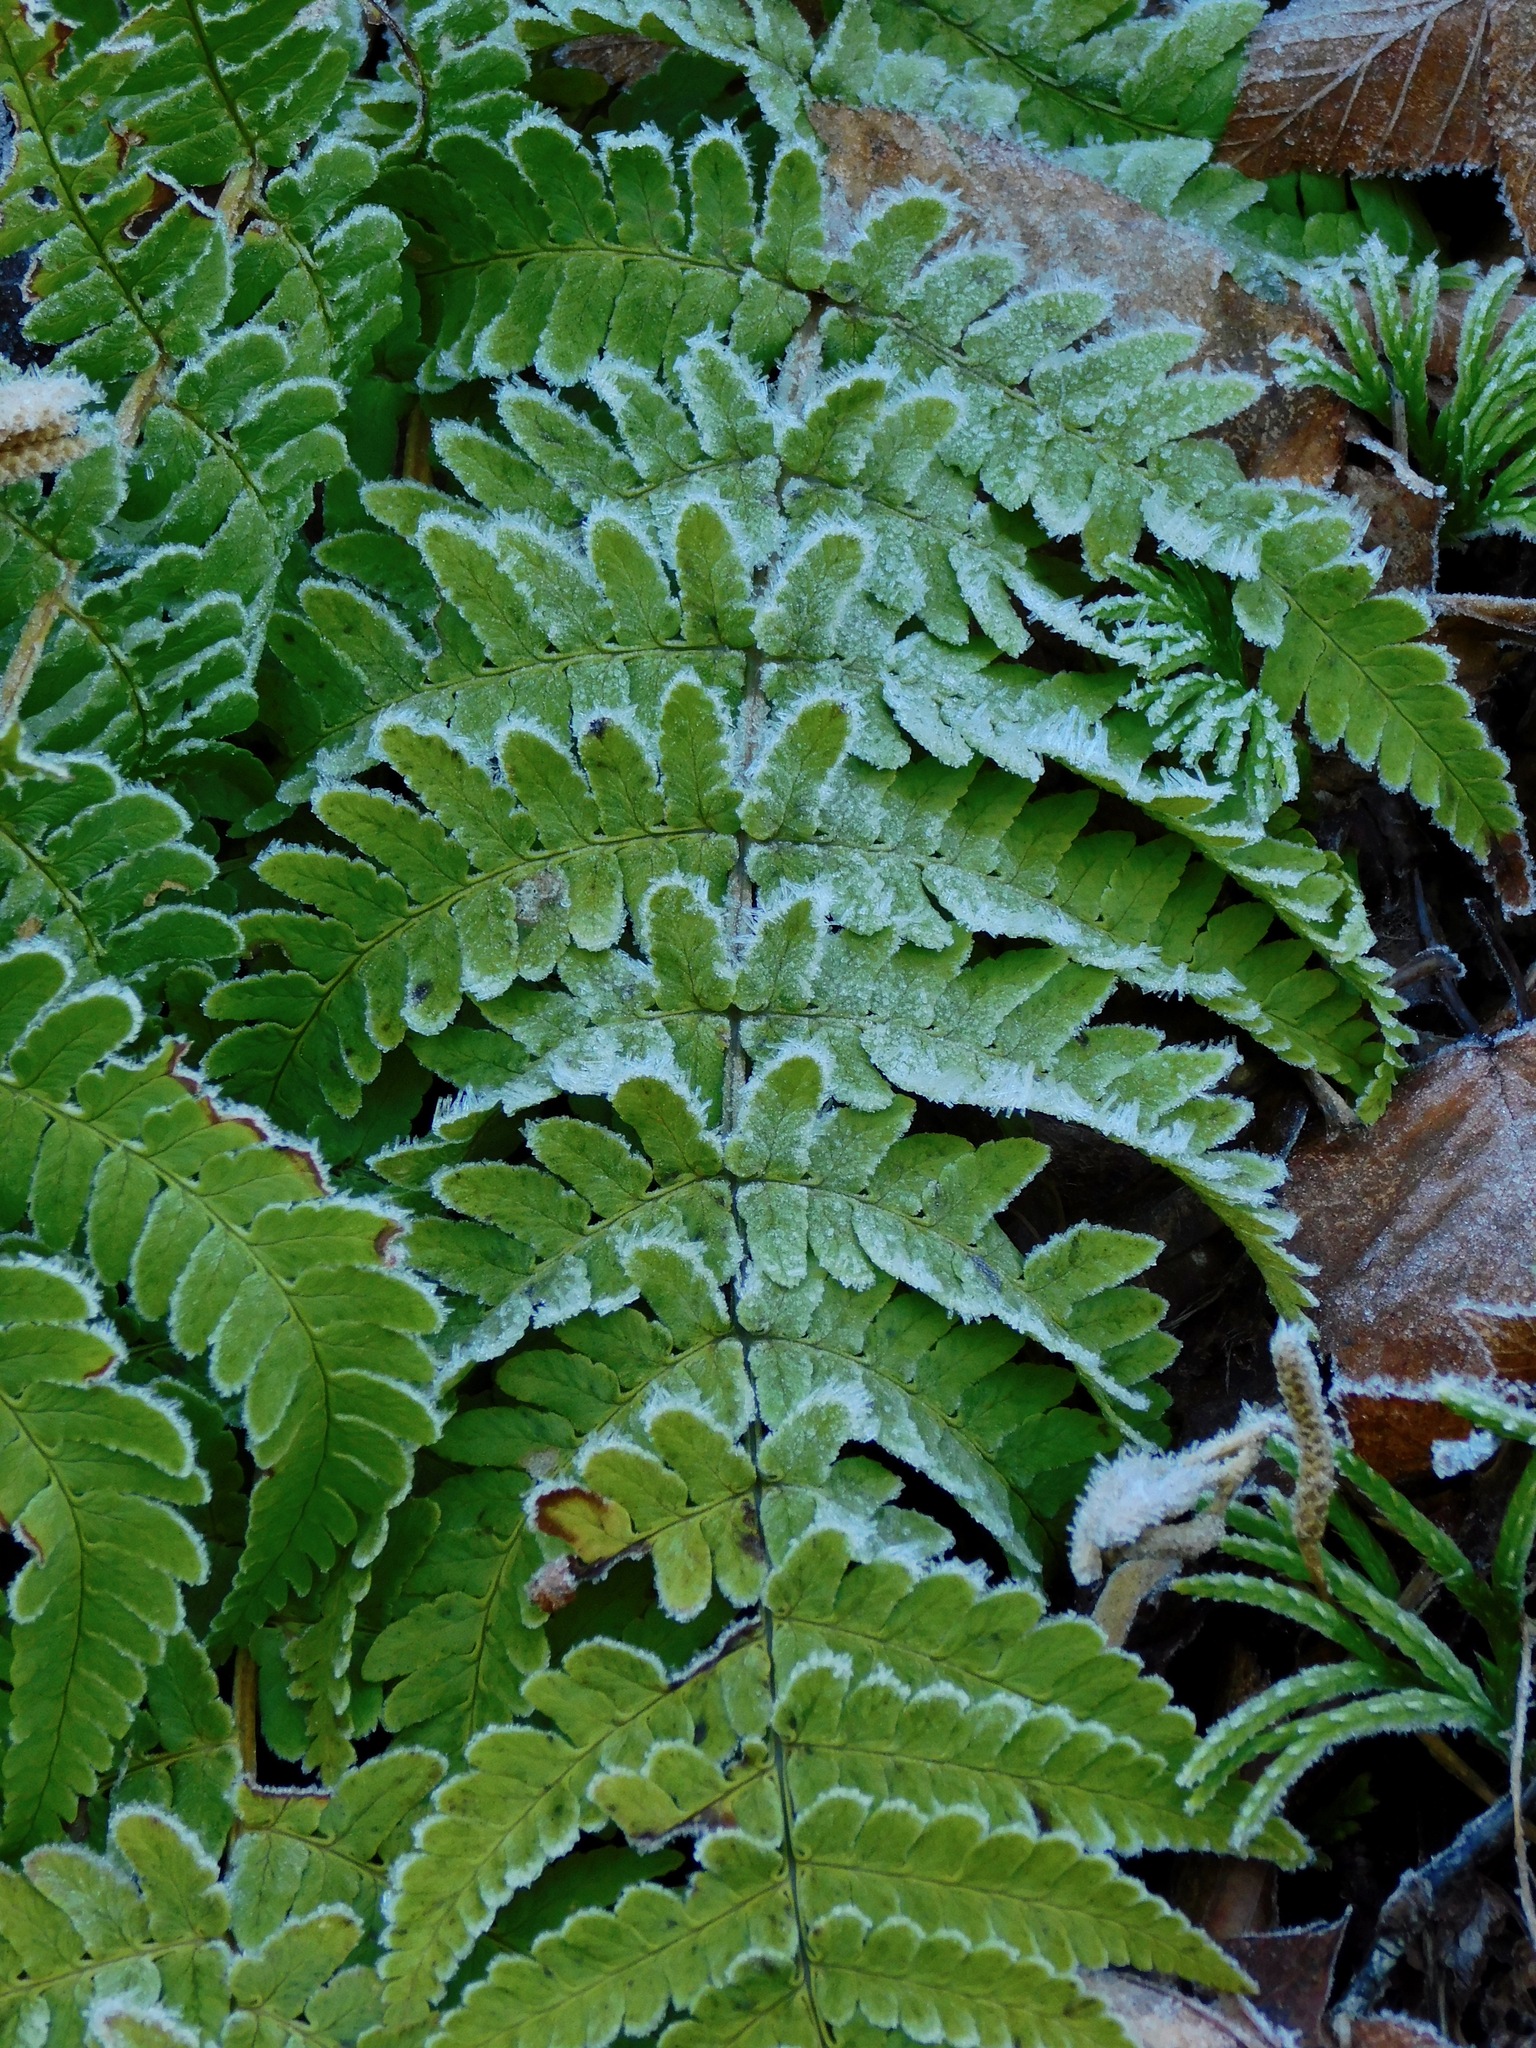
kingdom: Plantae
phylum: Tracheophyta
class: Polypodiopsida
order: Polypodiales
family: Dryopteridaceae
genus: Dryopteris
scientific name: Dryopteris marginalis
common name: Marginal wood fern
